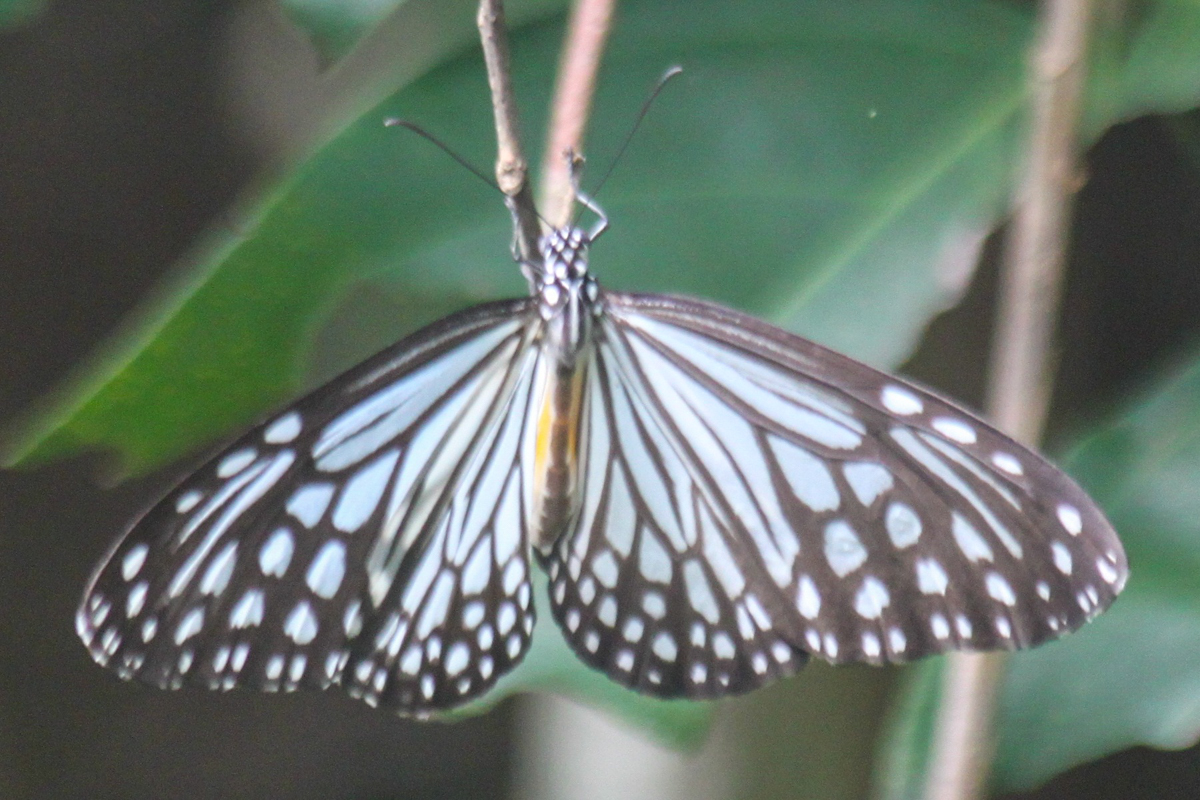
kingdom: Animalia
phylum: Arthropoda
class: Insecta
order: Lepidoptera
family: Nymphalidae
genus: Parantica
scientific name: Parantica aglea
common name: Glassy tiger
